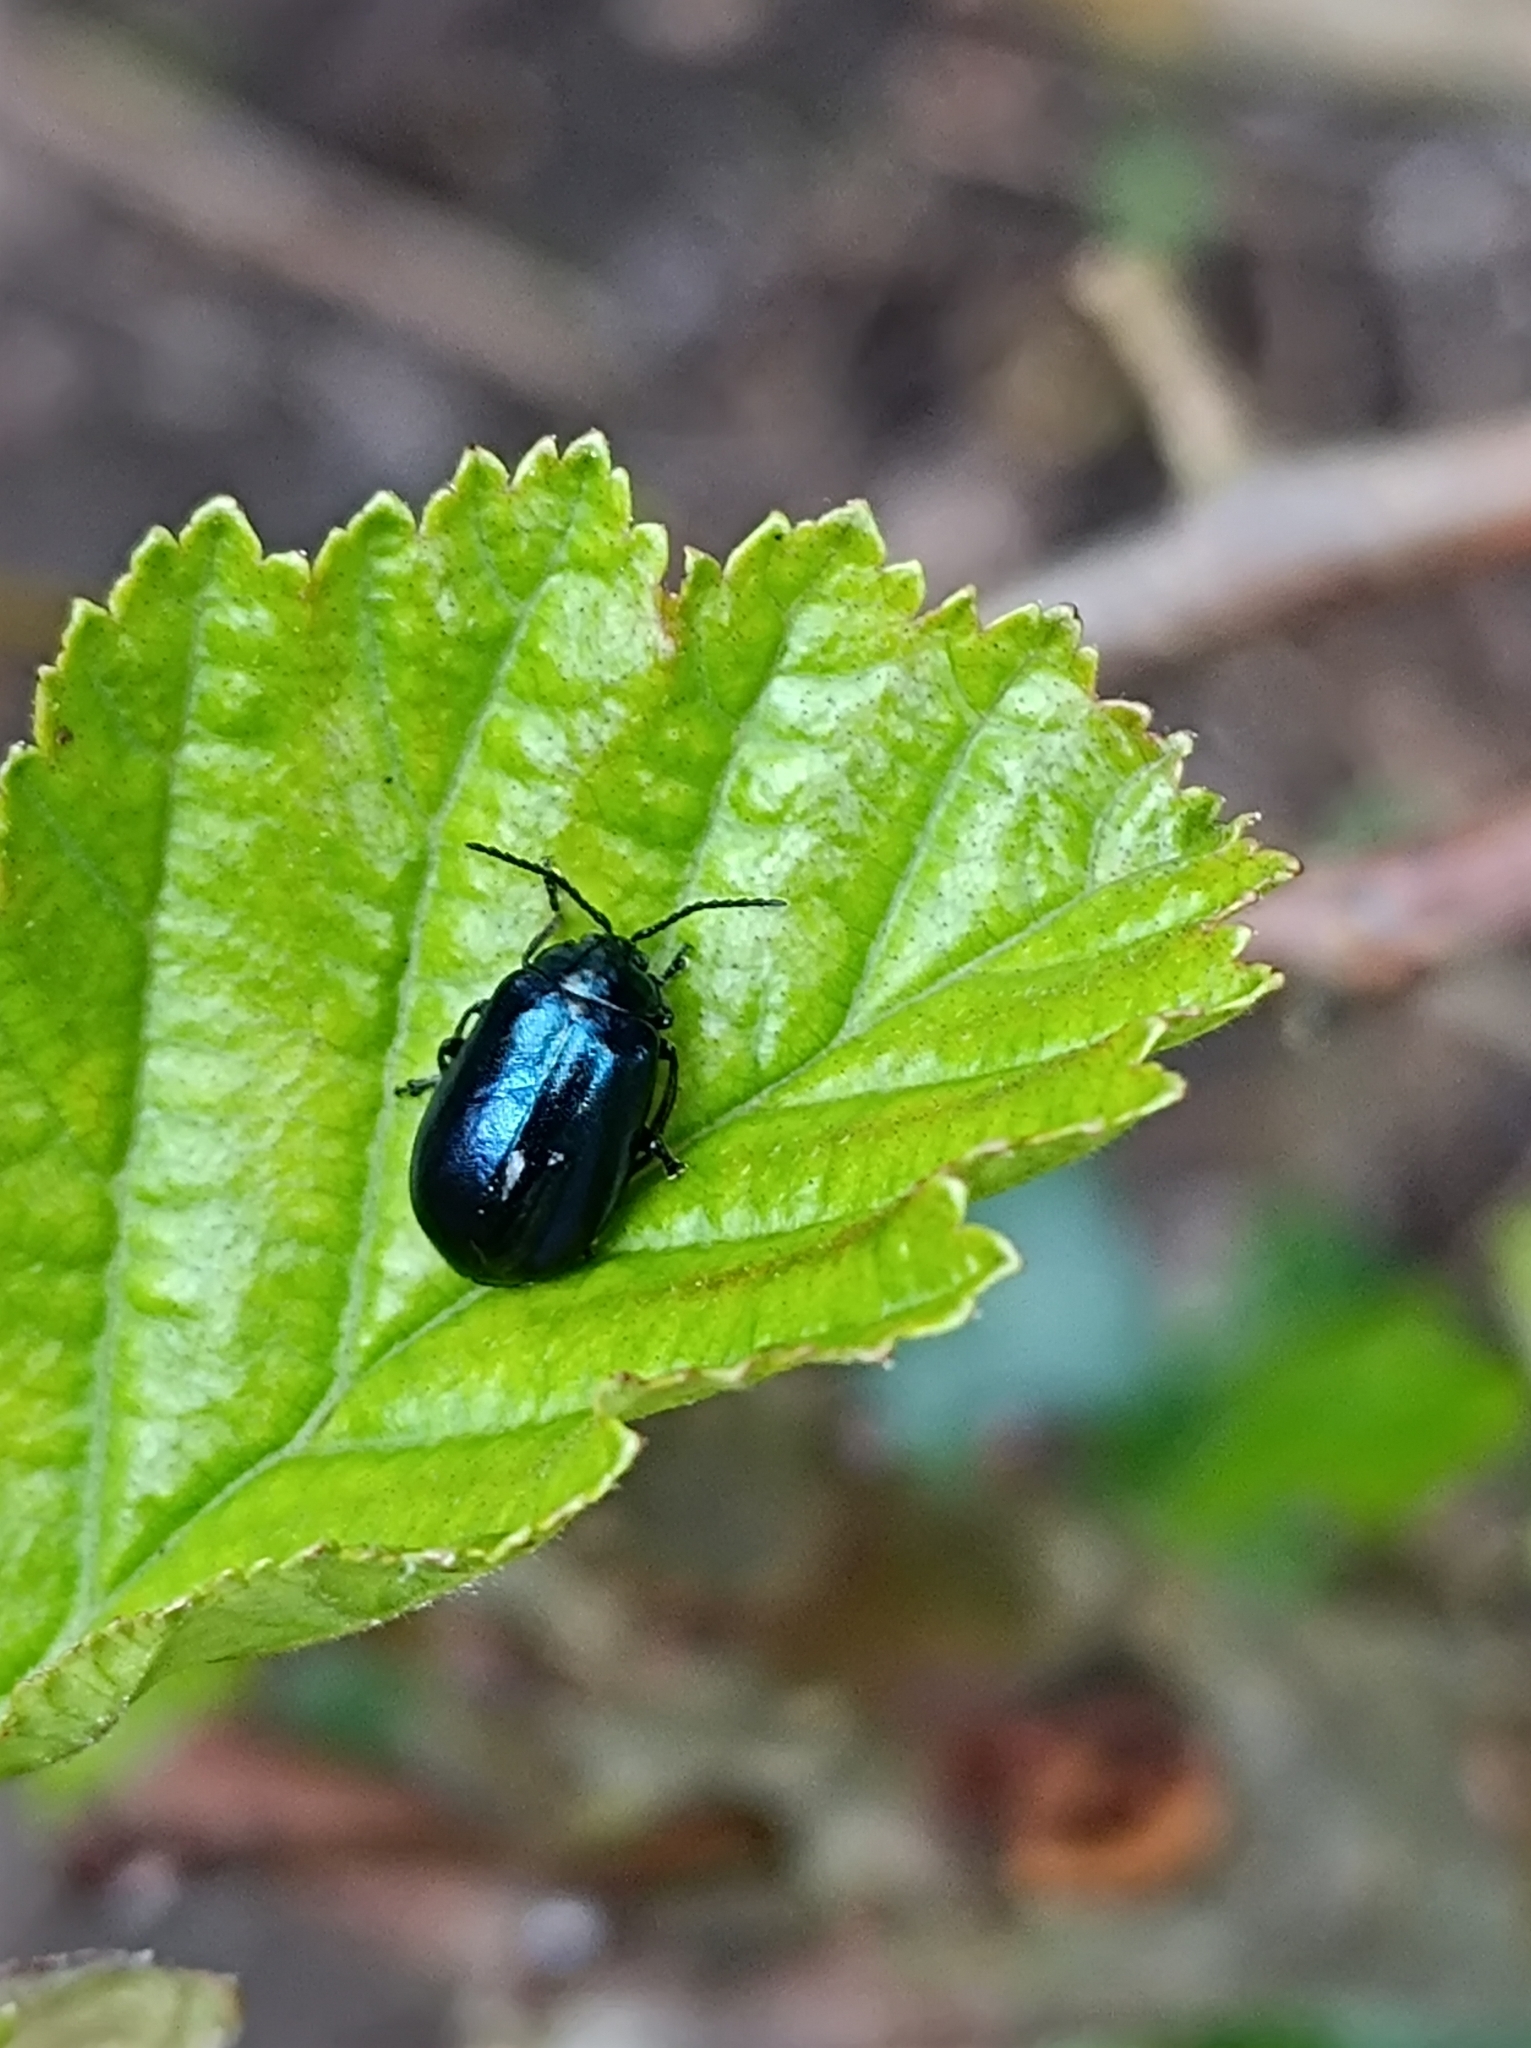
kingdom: Animalia
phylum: Arthropoda
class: Insecta
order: Coleoptera
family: Chrysomelidae
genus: Agelastica
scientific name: Agelastica alni
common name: Alder leaf beetle
